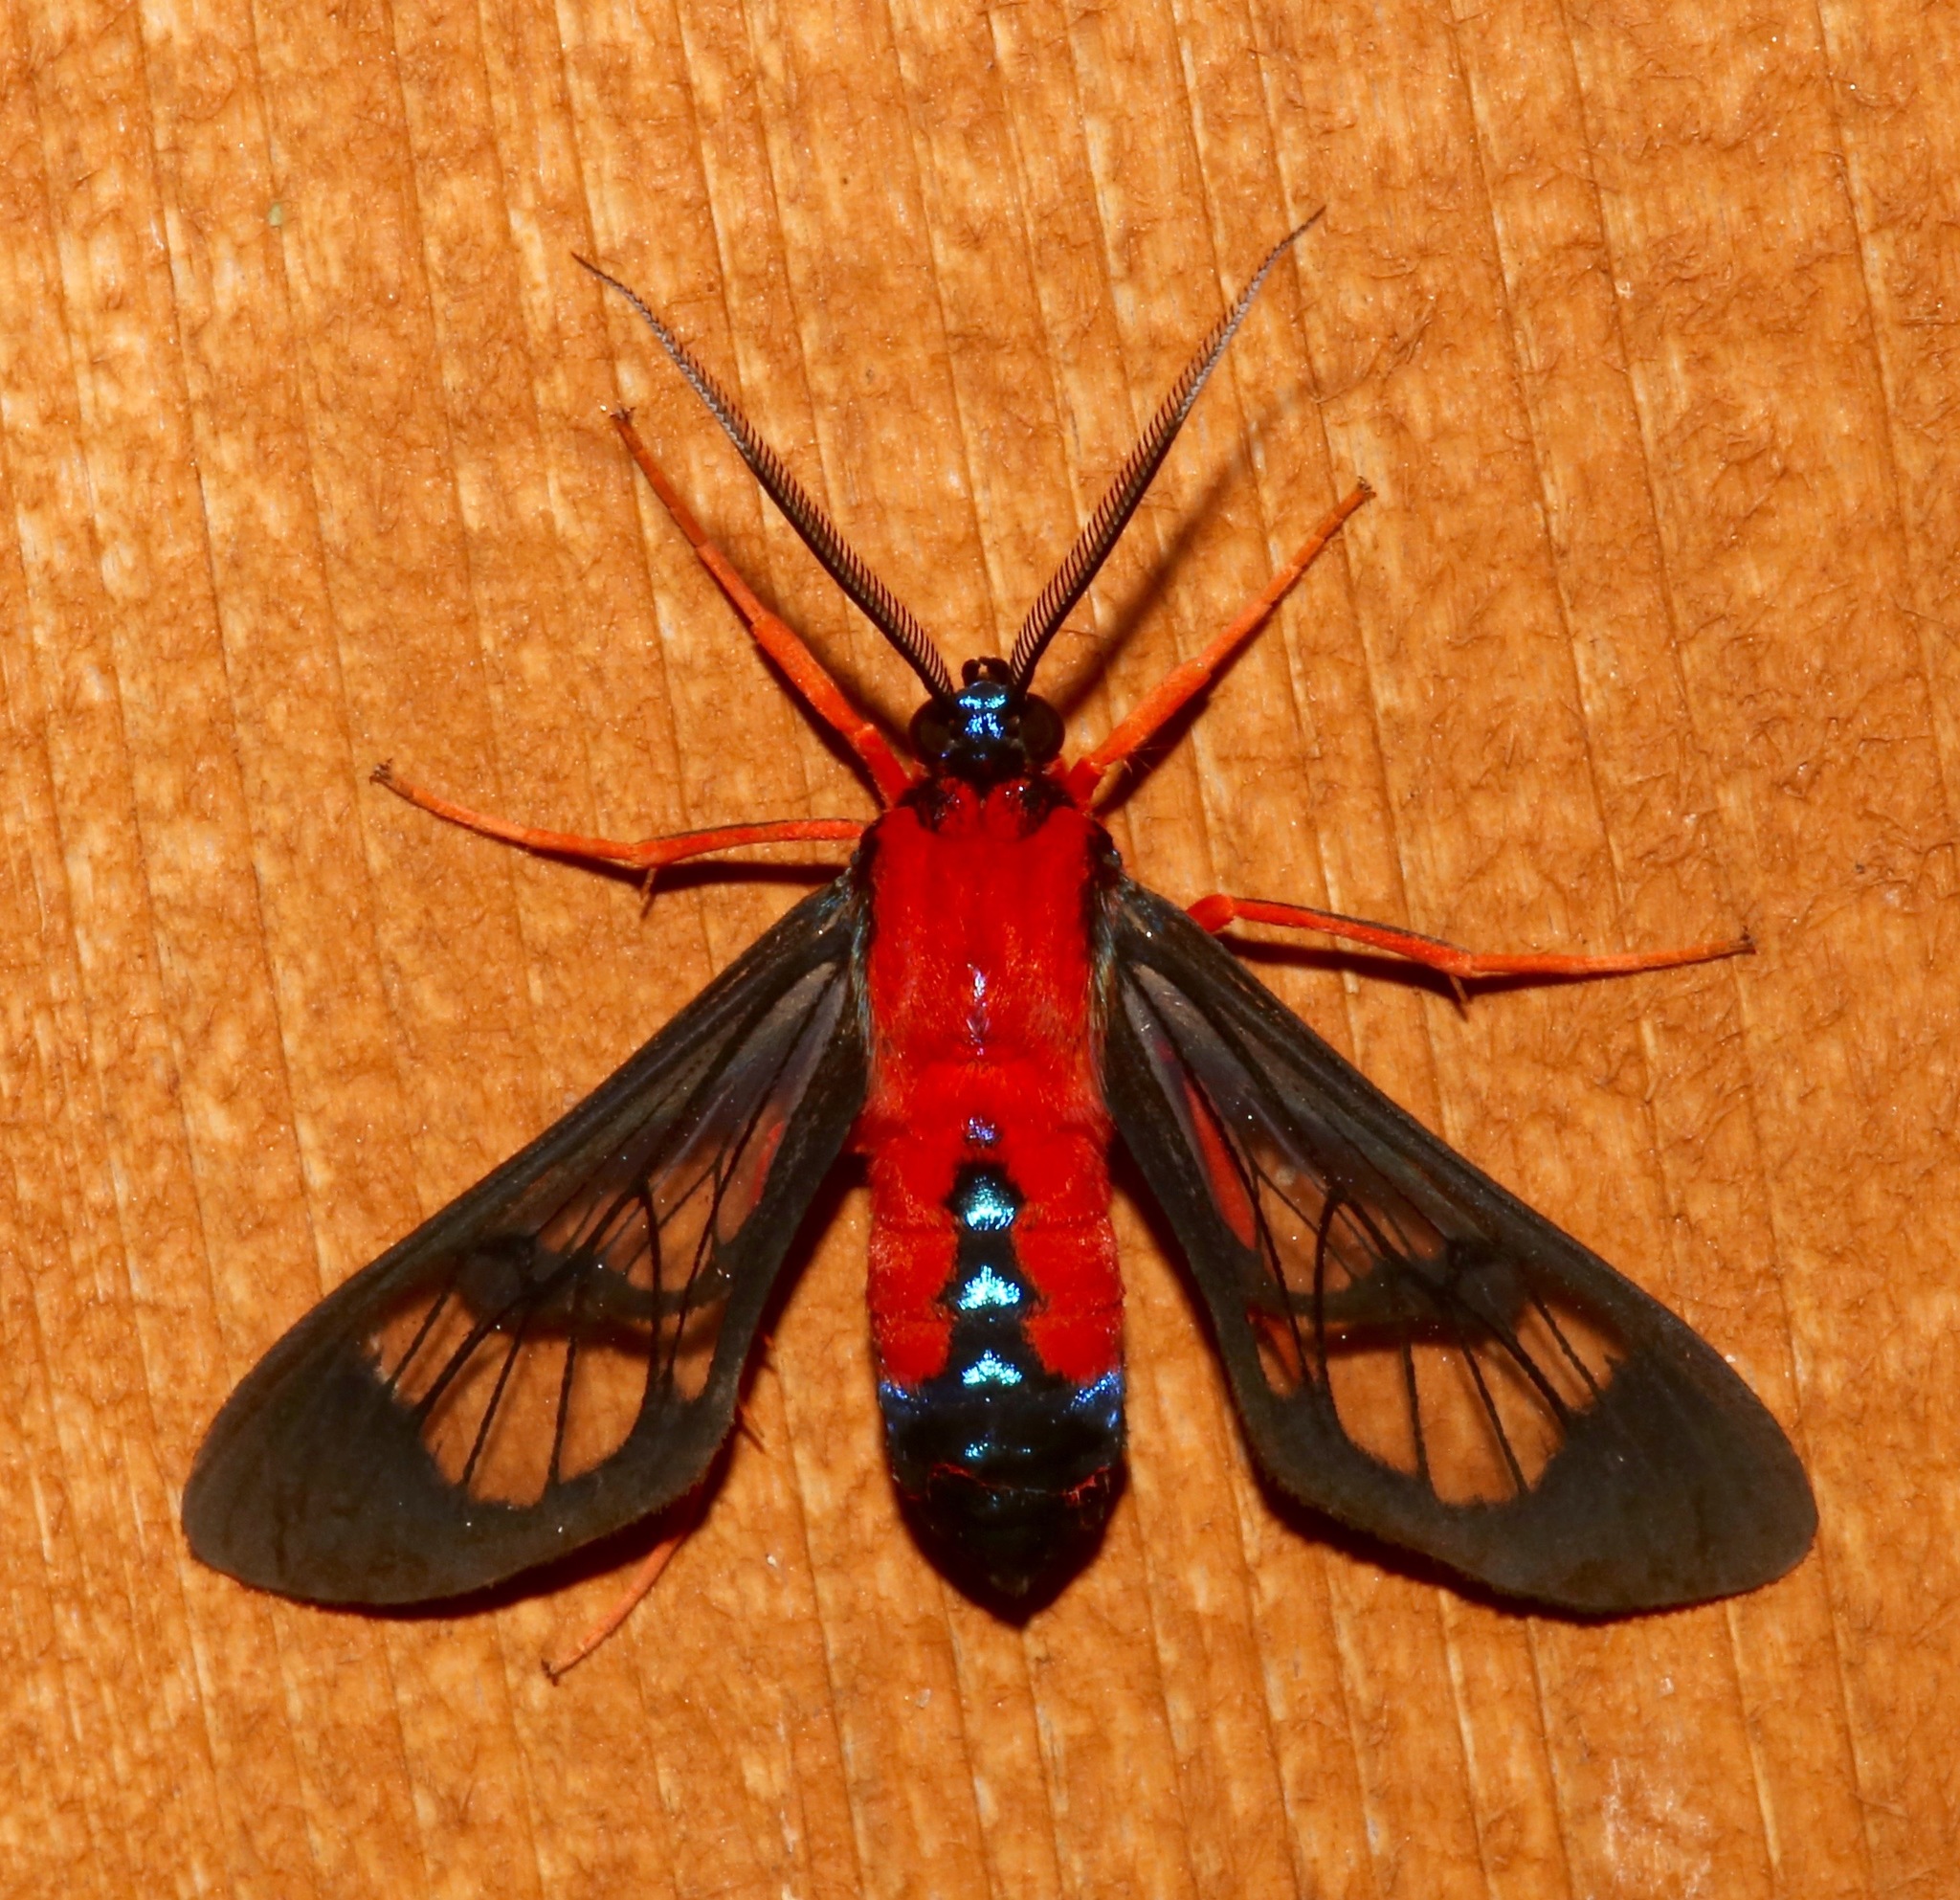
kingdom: Animalia
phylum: Arthropoda
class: Insecta
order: Lepidoptera
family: Erebidae
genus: Cosmosoma
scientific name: Cosmosoma myrodora
